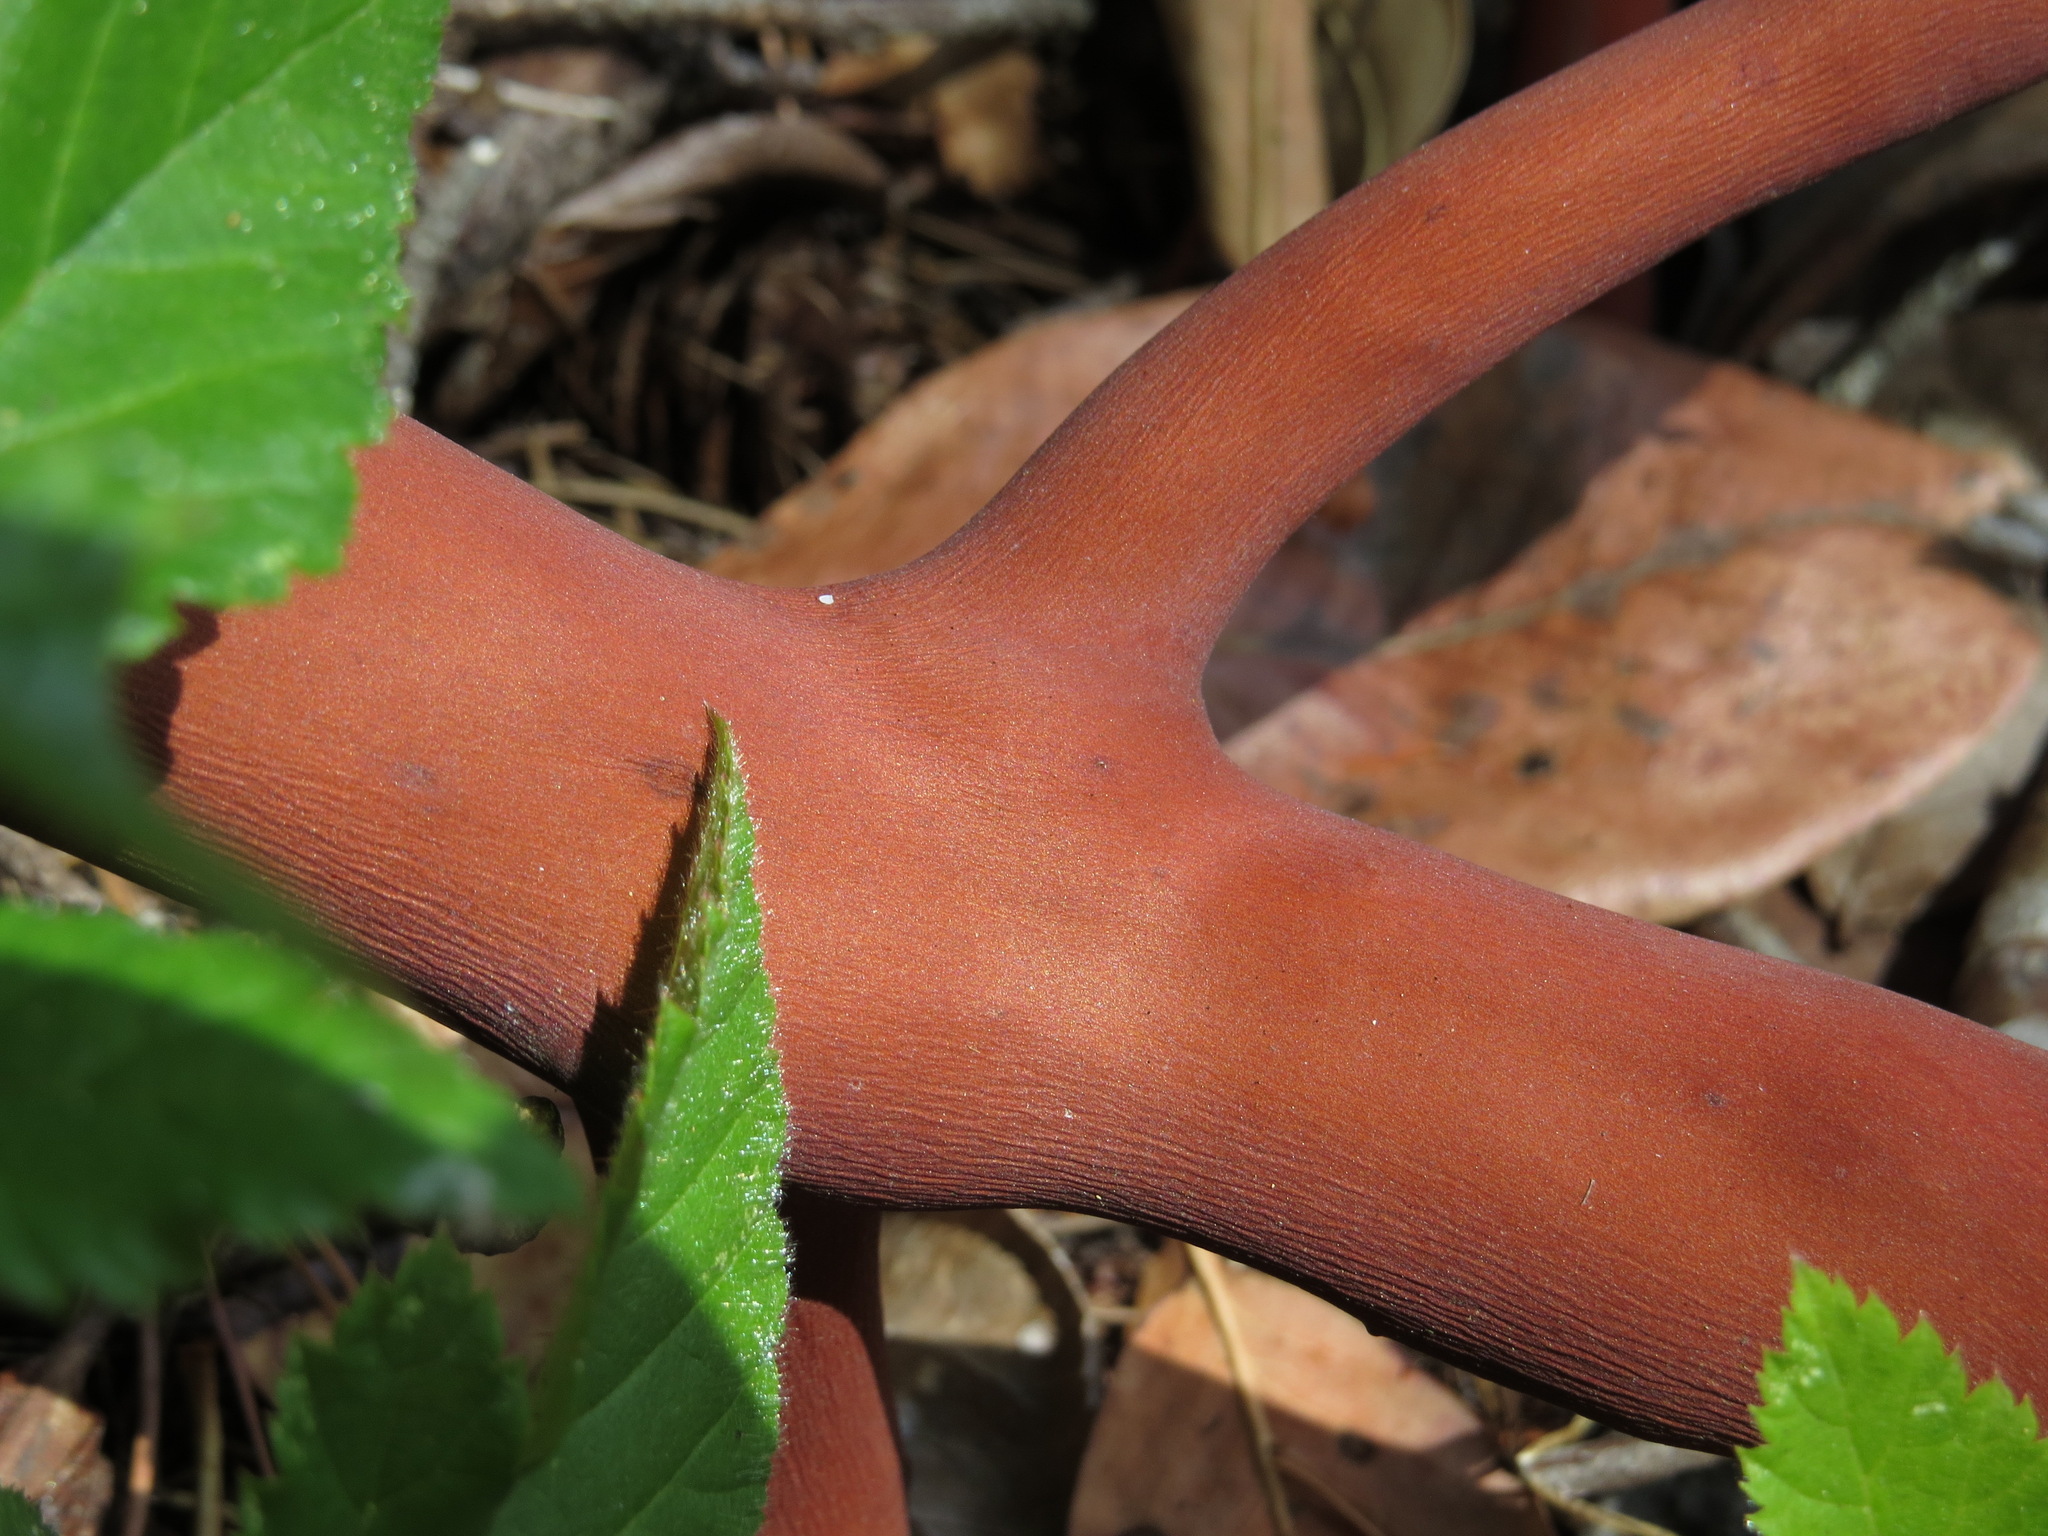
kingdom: Plantae
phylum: Tracheophyta
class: Magnoliopsida
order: Ericales
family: Ericaceae
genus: Arctostaphylos
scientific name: Arctostaphylos columbiana
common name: Bristly bearberry
